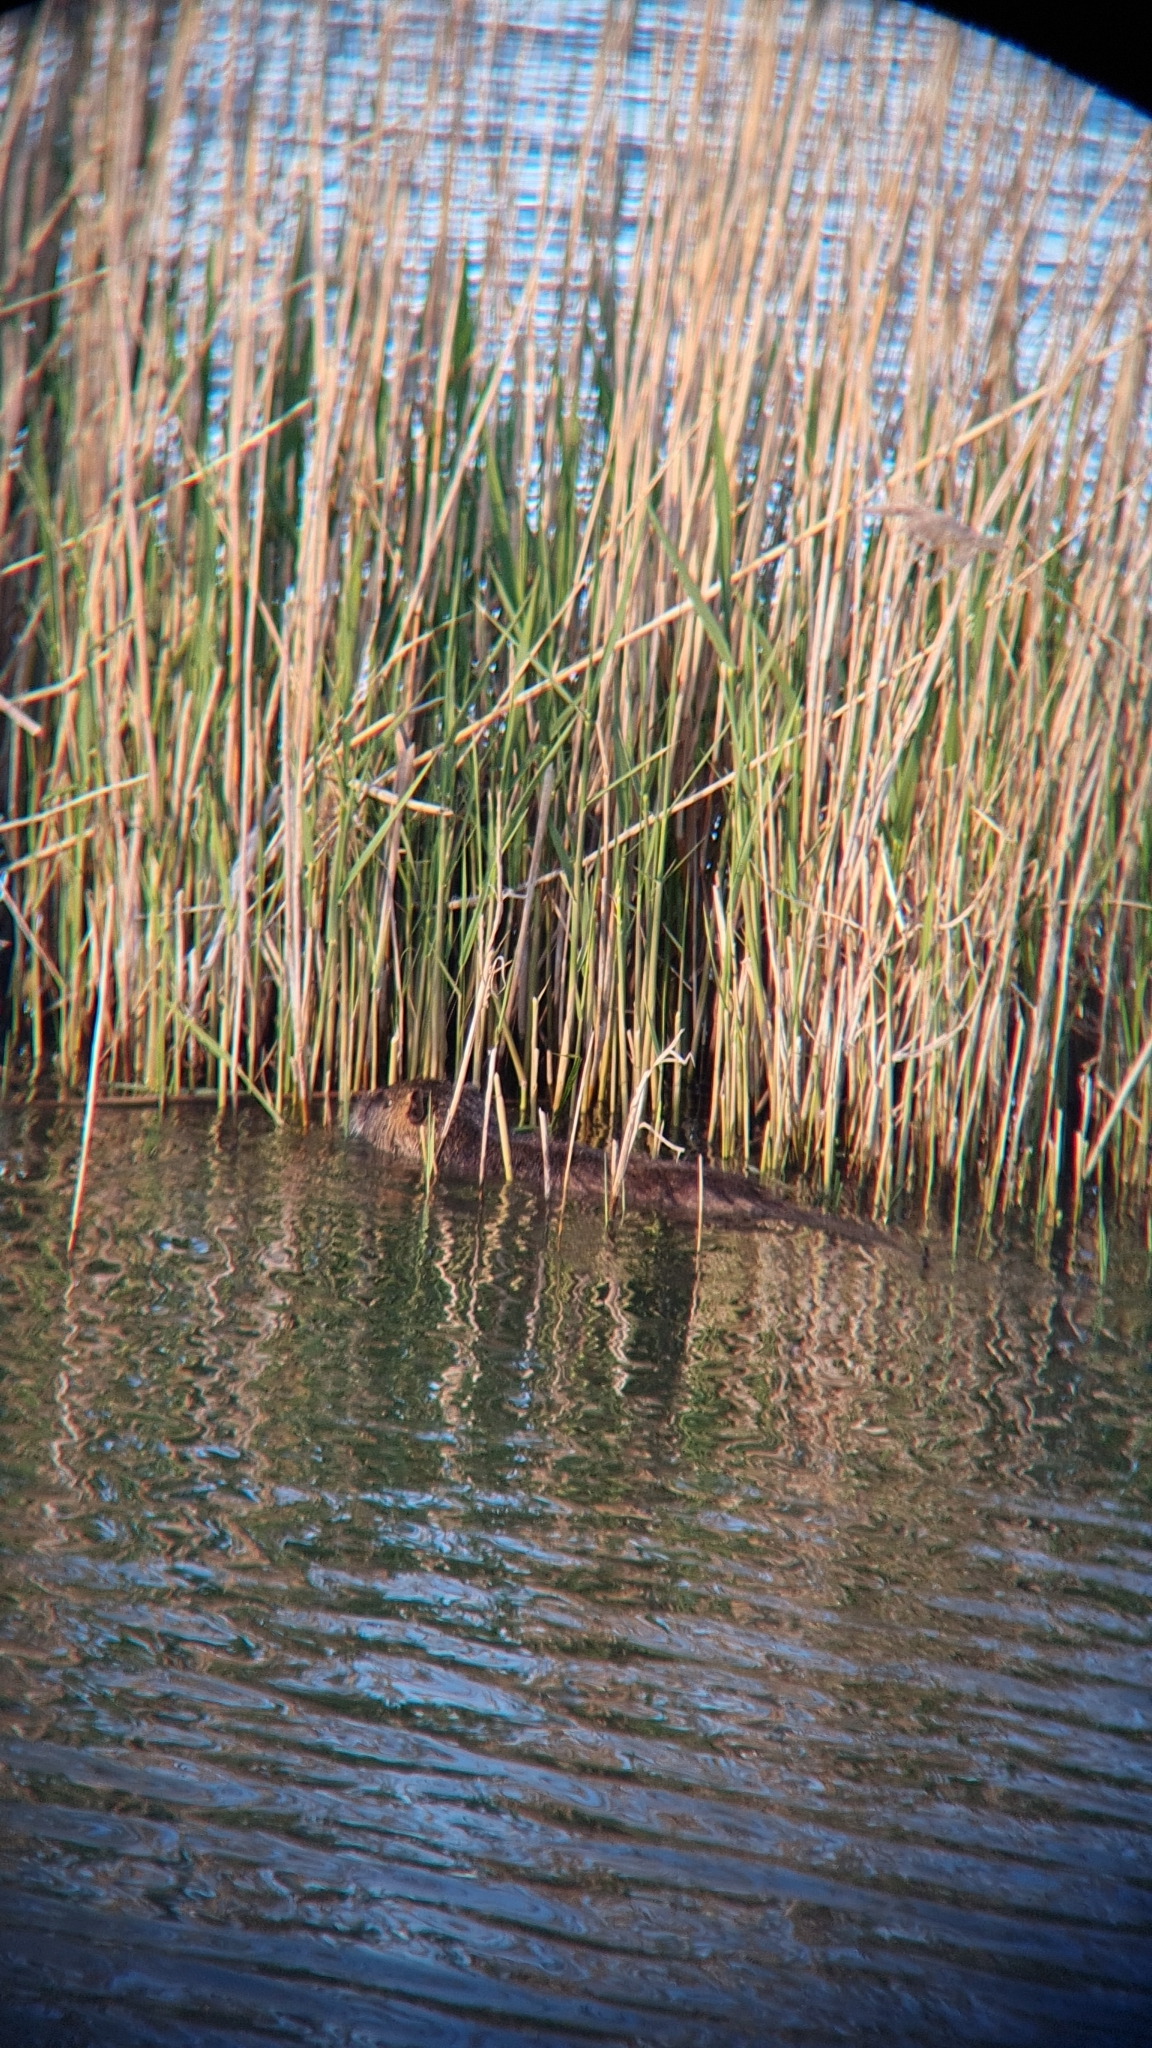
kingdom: Animalia
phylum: Chordata
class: Mammalia
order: Rodentia
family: Myocastoridae
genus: Myocastor
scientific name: Myocastor coypus
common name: Coypu
